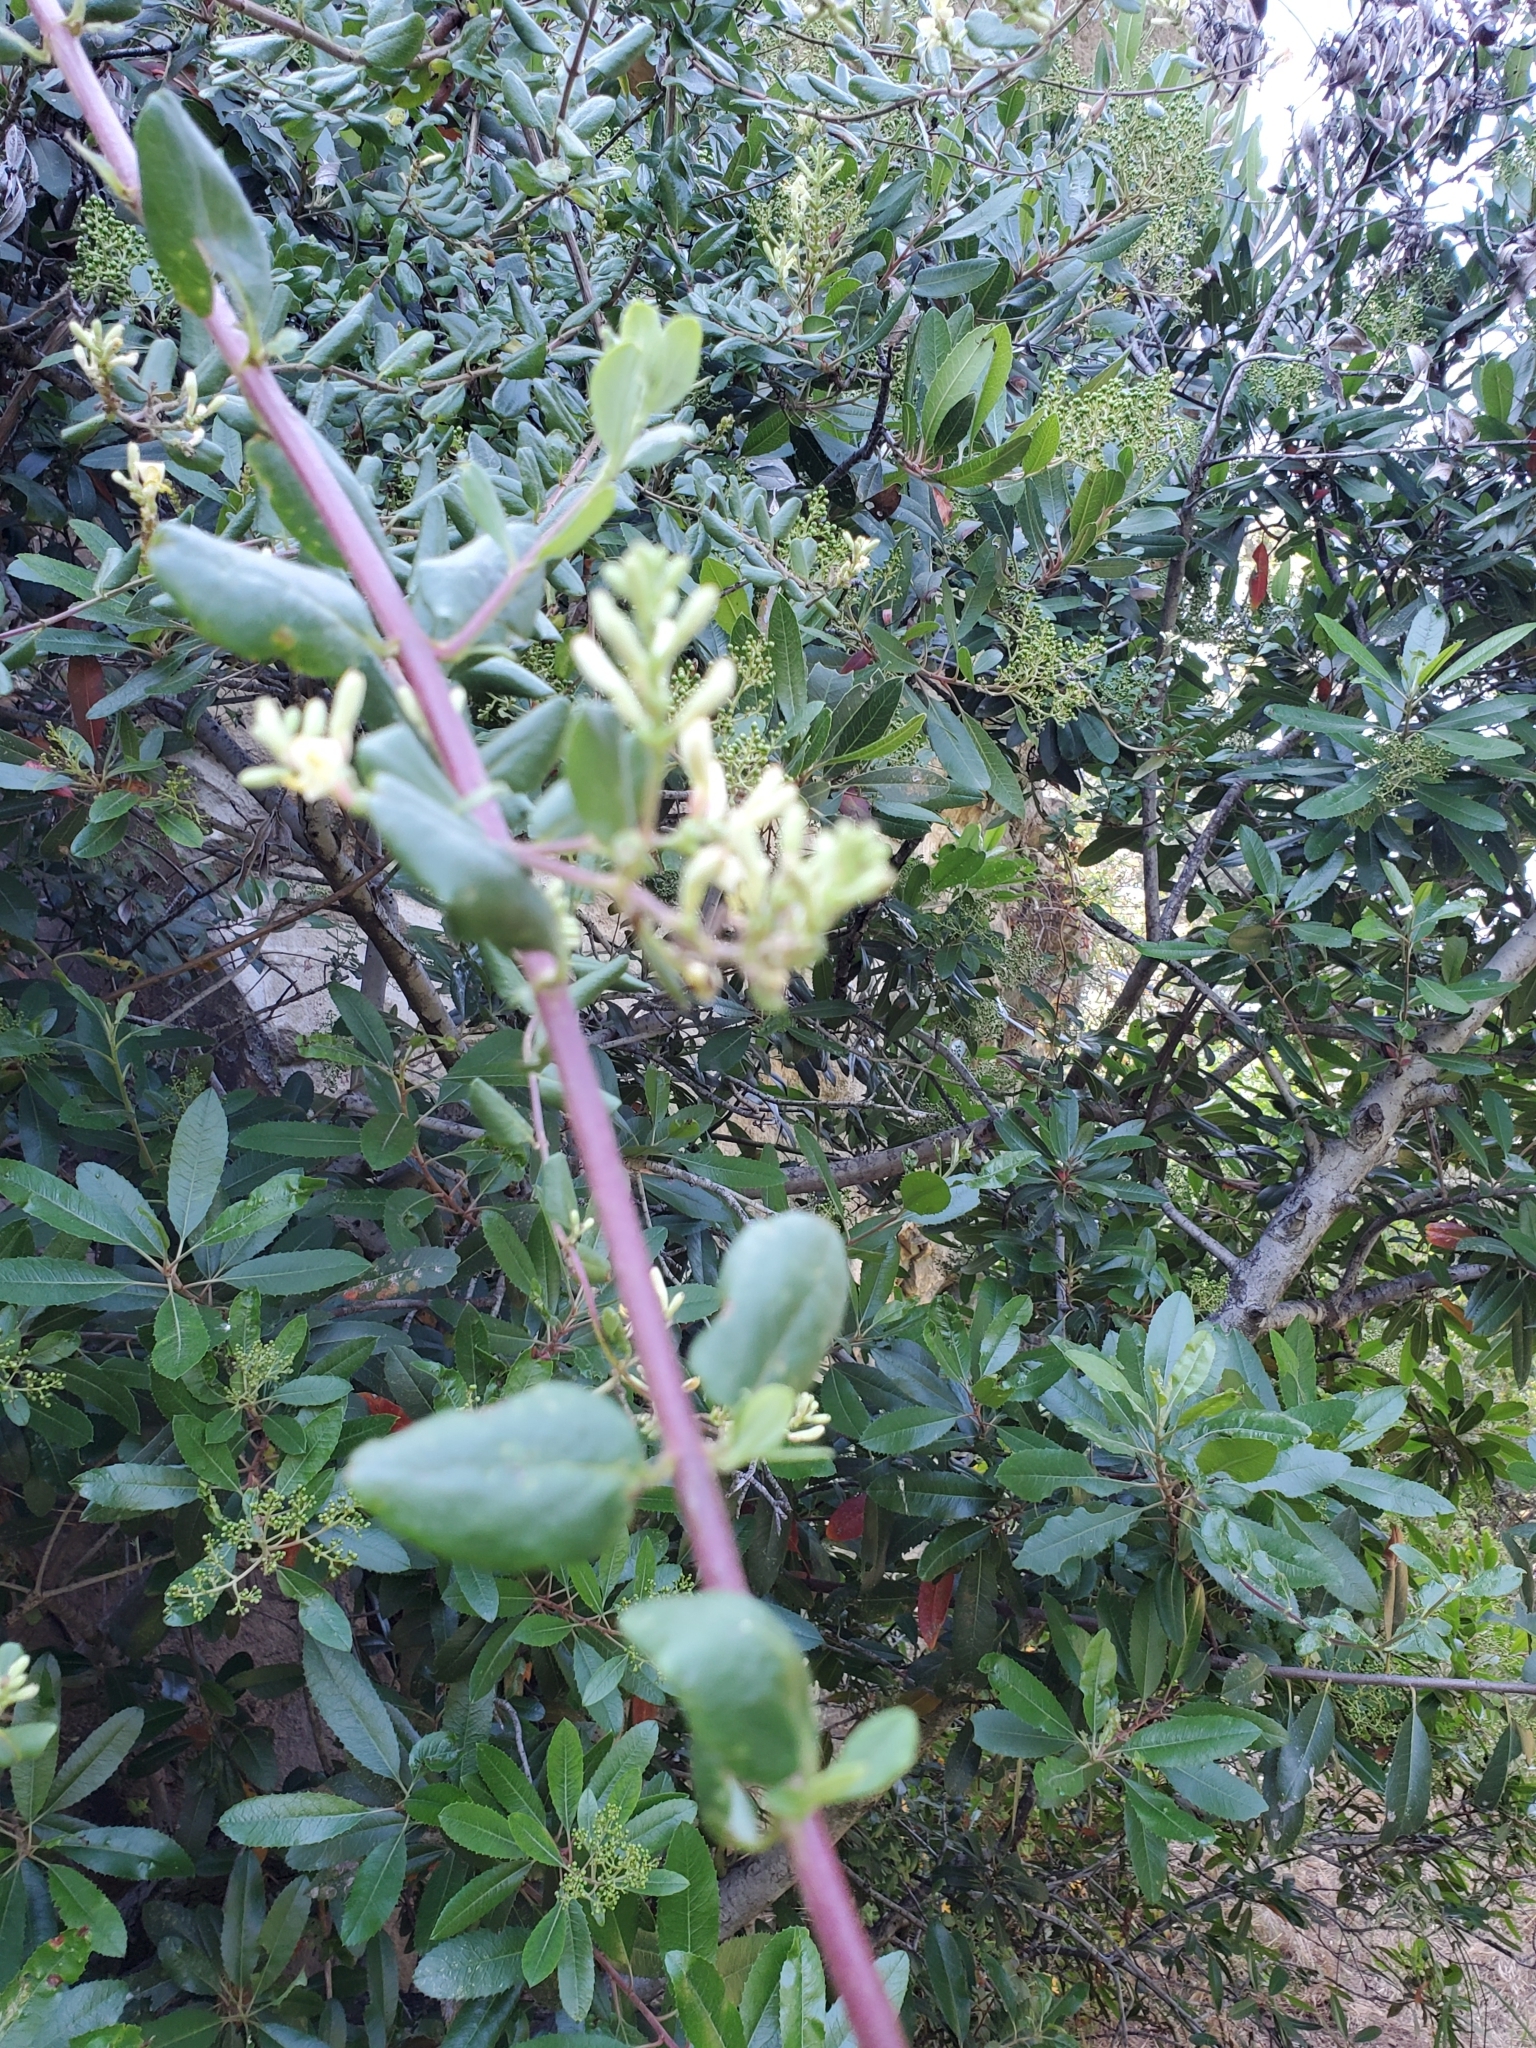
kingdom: Plantae
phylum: Tracheophyta
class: Magnoliopsida
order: Dipsacales
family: Caprifoliaceae
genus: Lonicera
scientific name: Lonicera subspicata
